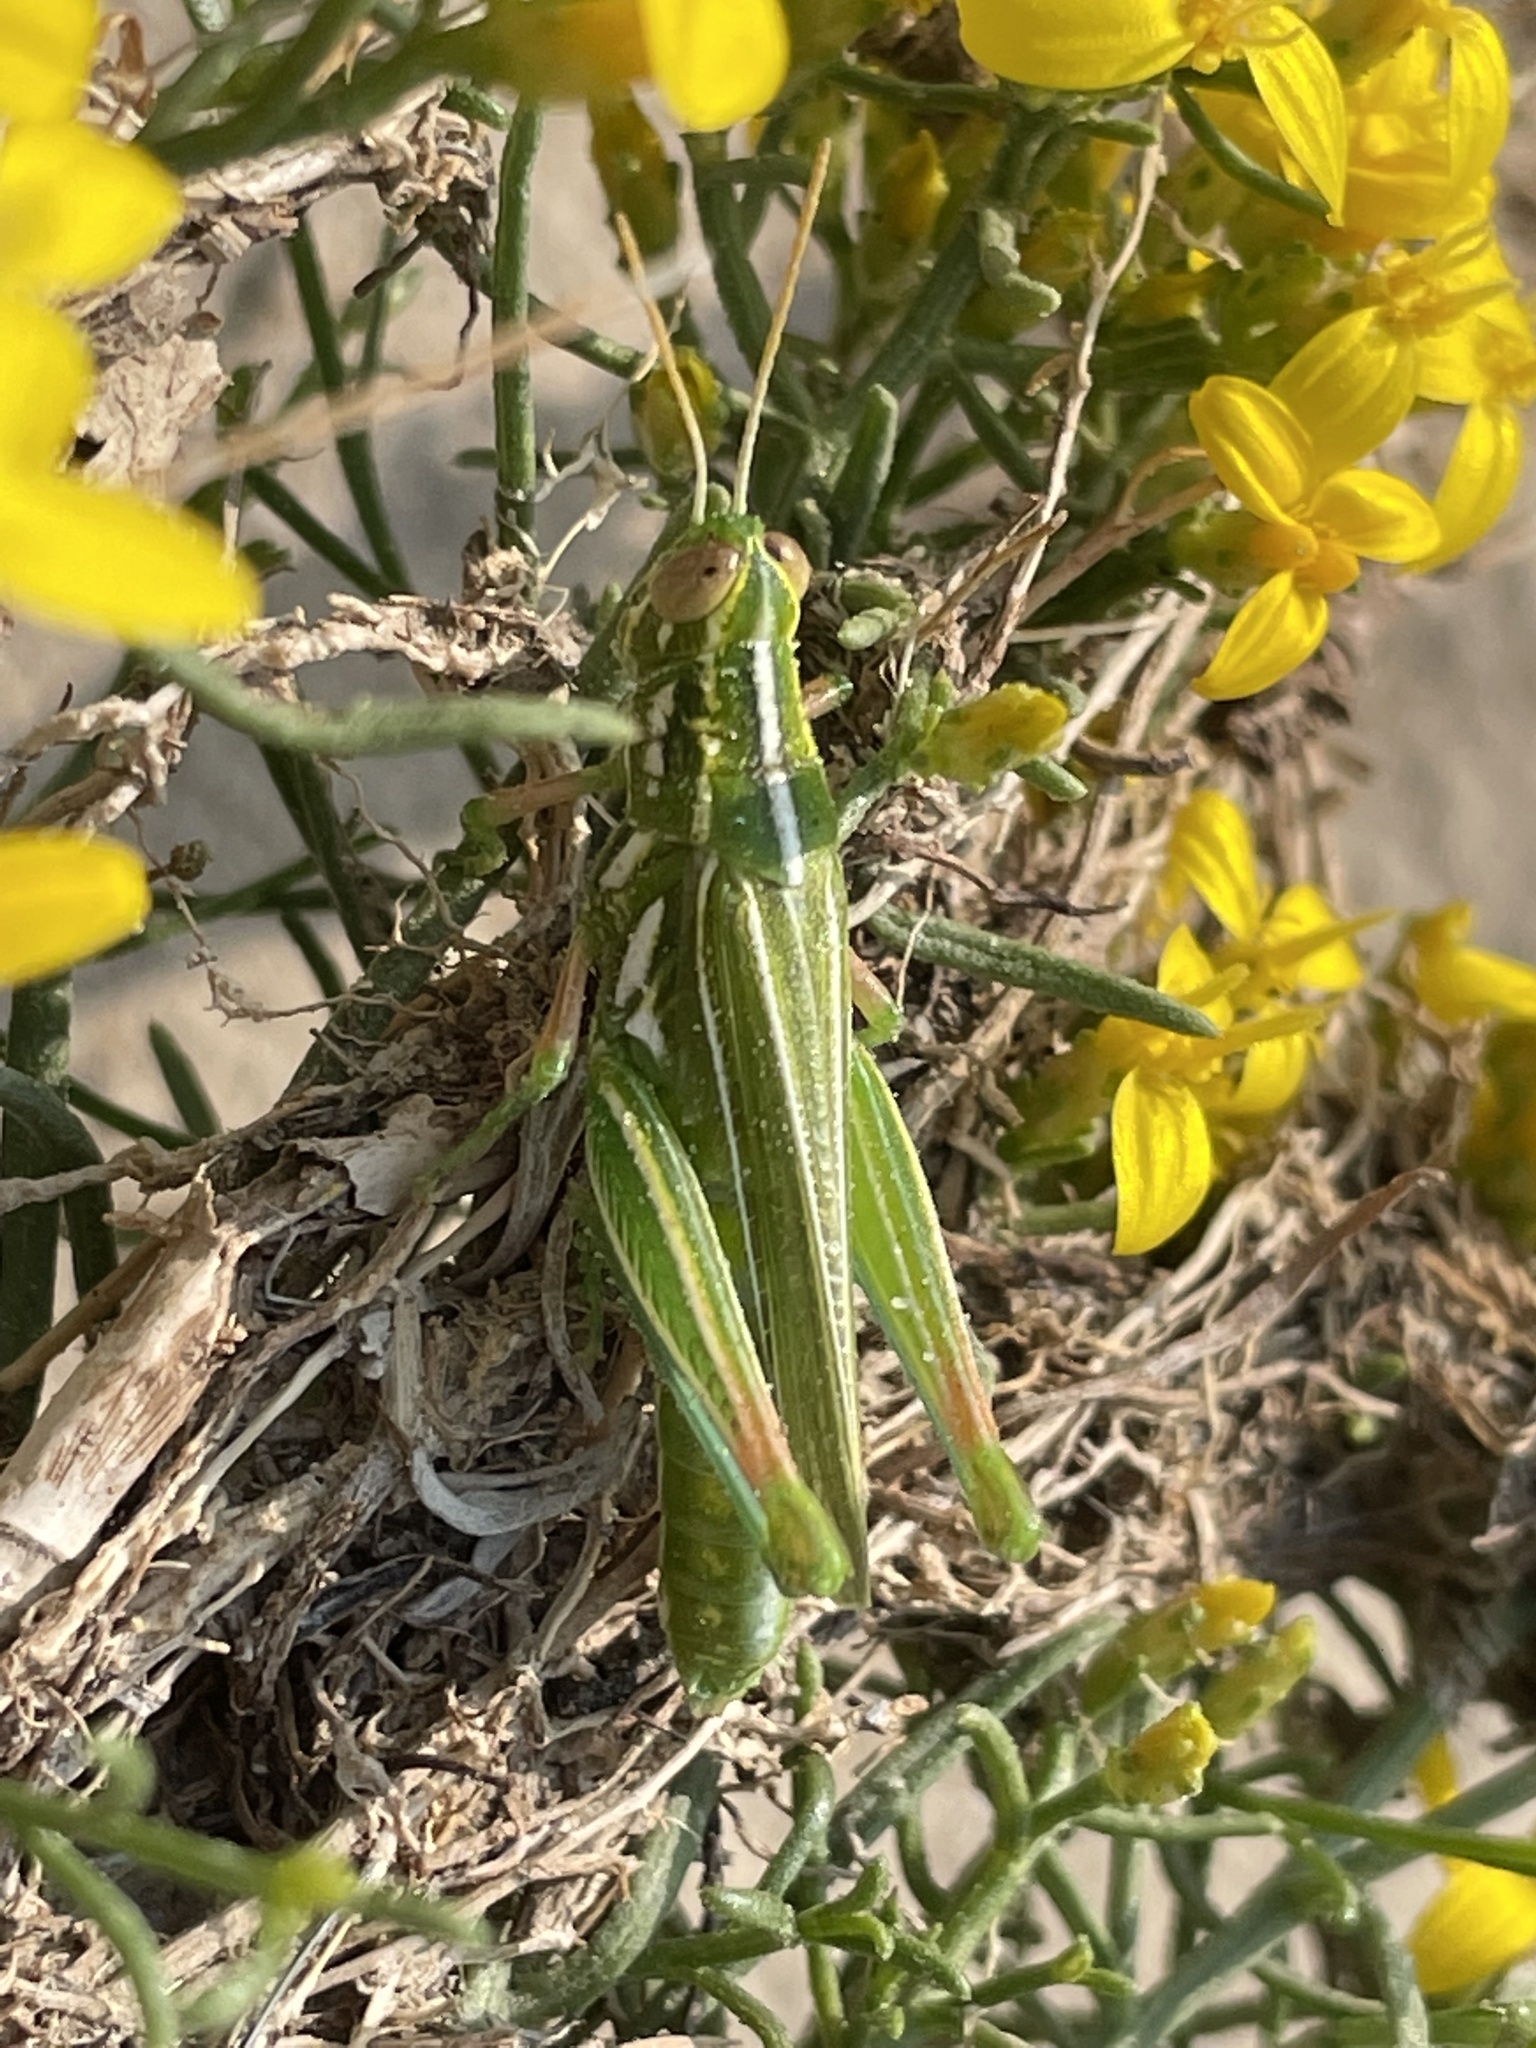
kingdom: Animalia
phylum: Arthropoda
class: Insecta
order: Orthoptera
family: Acrididae
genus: Hesperotettix
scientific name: Hesperotettix viridis
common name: Meadow purple-striped grasshopper
